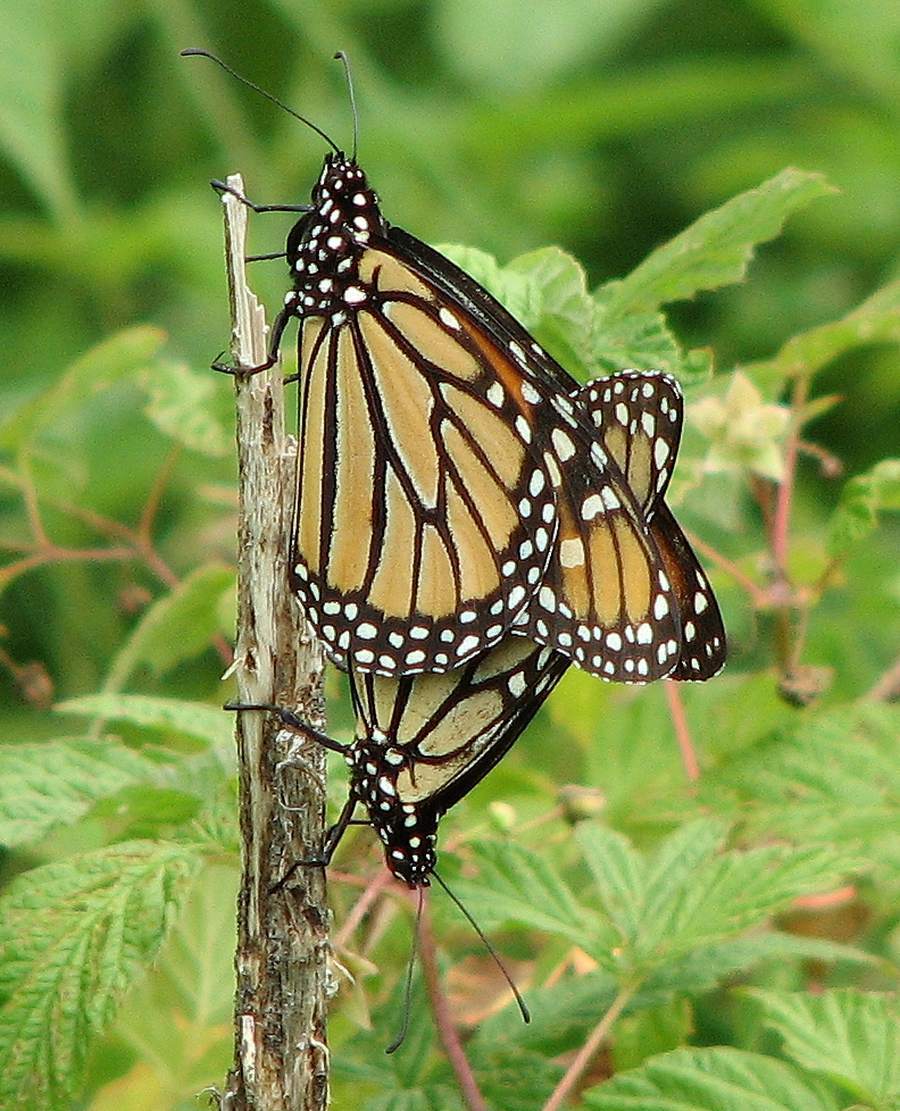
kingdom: Animalia
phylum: Arthropoda
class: Insecta
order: Lepidoptera
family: Nymphalidae
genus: Danaus
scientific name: Danaus plexippus
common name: Monarch
